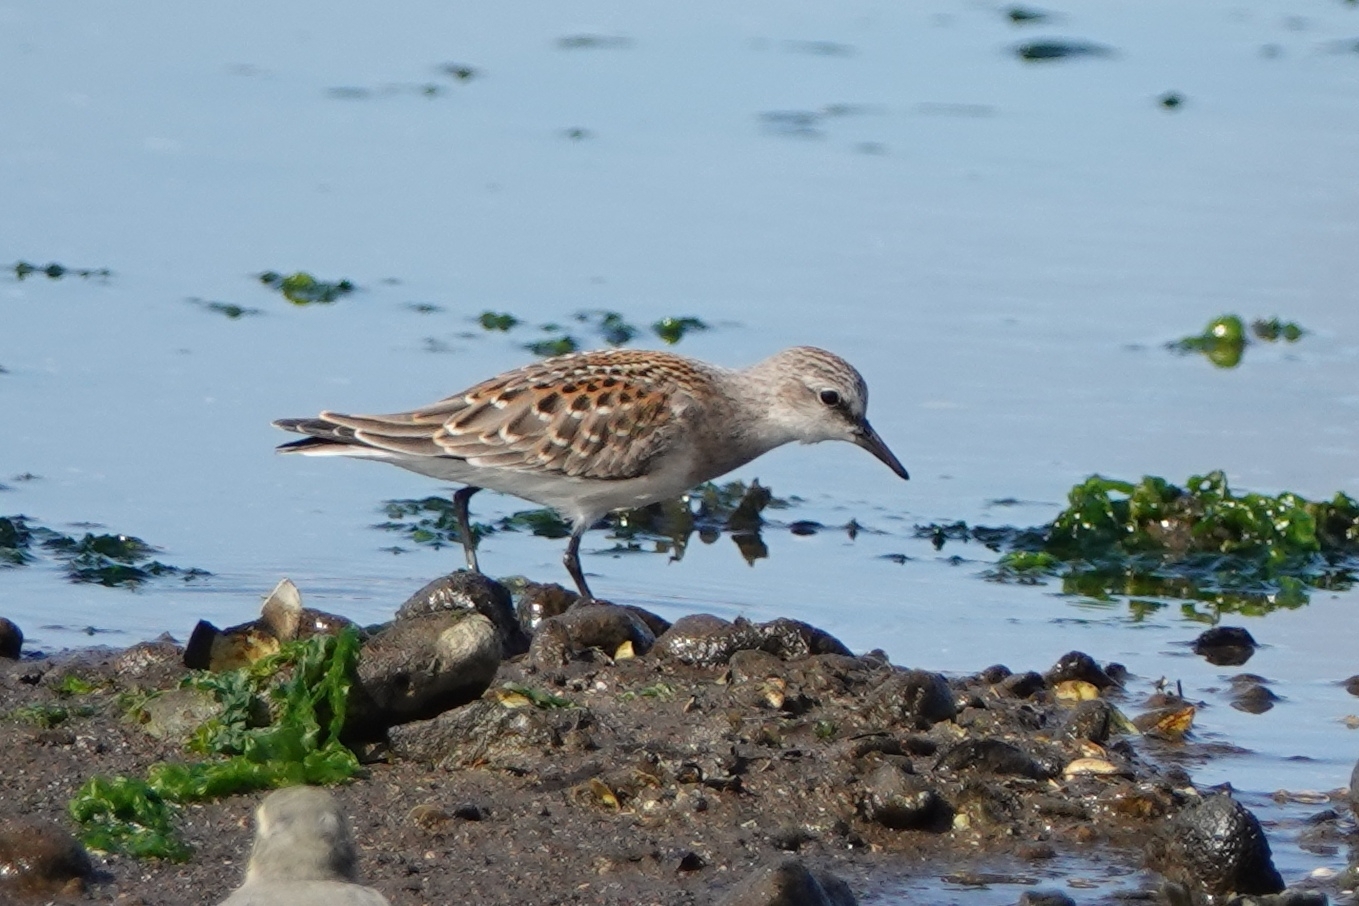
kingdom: Animalia
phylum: Chordata
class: Aves
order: Charadriiformes
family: Scolopacidae
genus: Calidris
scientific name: Calidris ruficollis
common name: Red-necked stint
